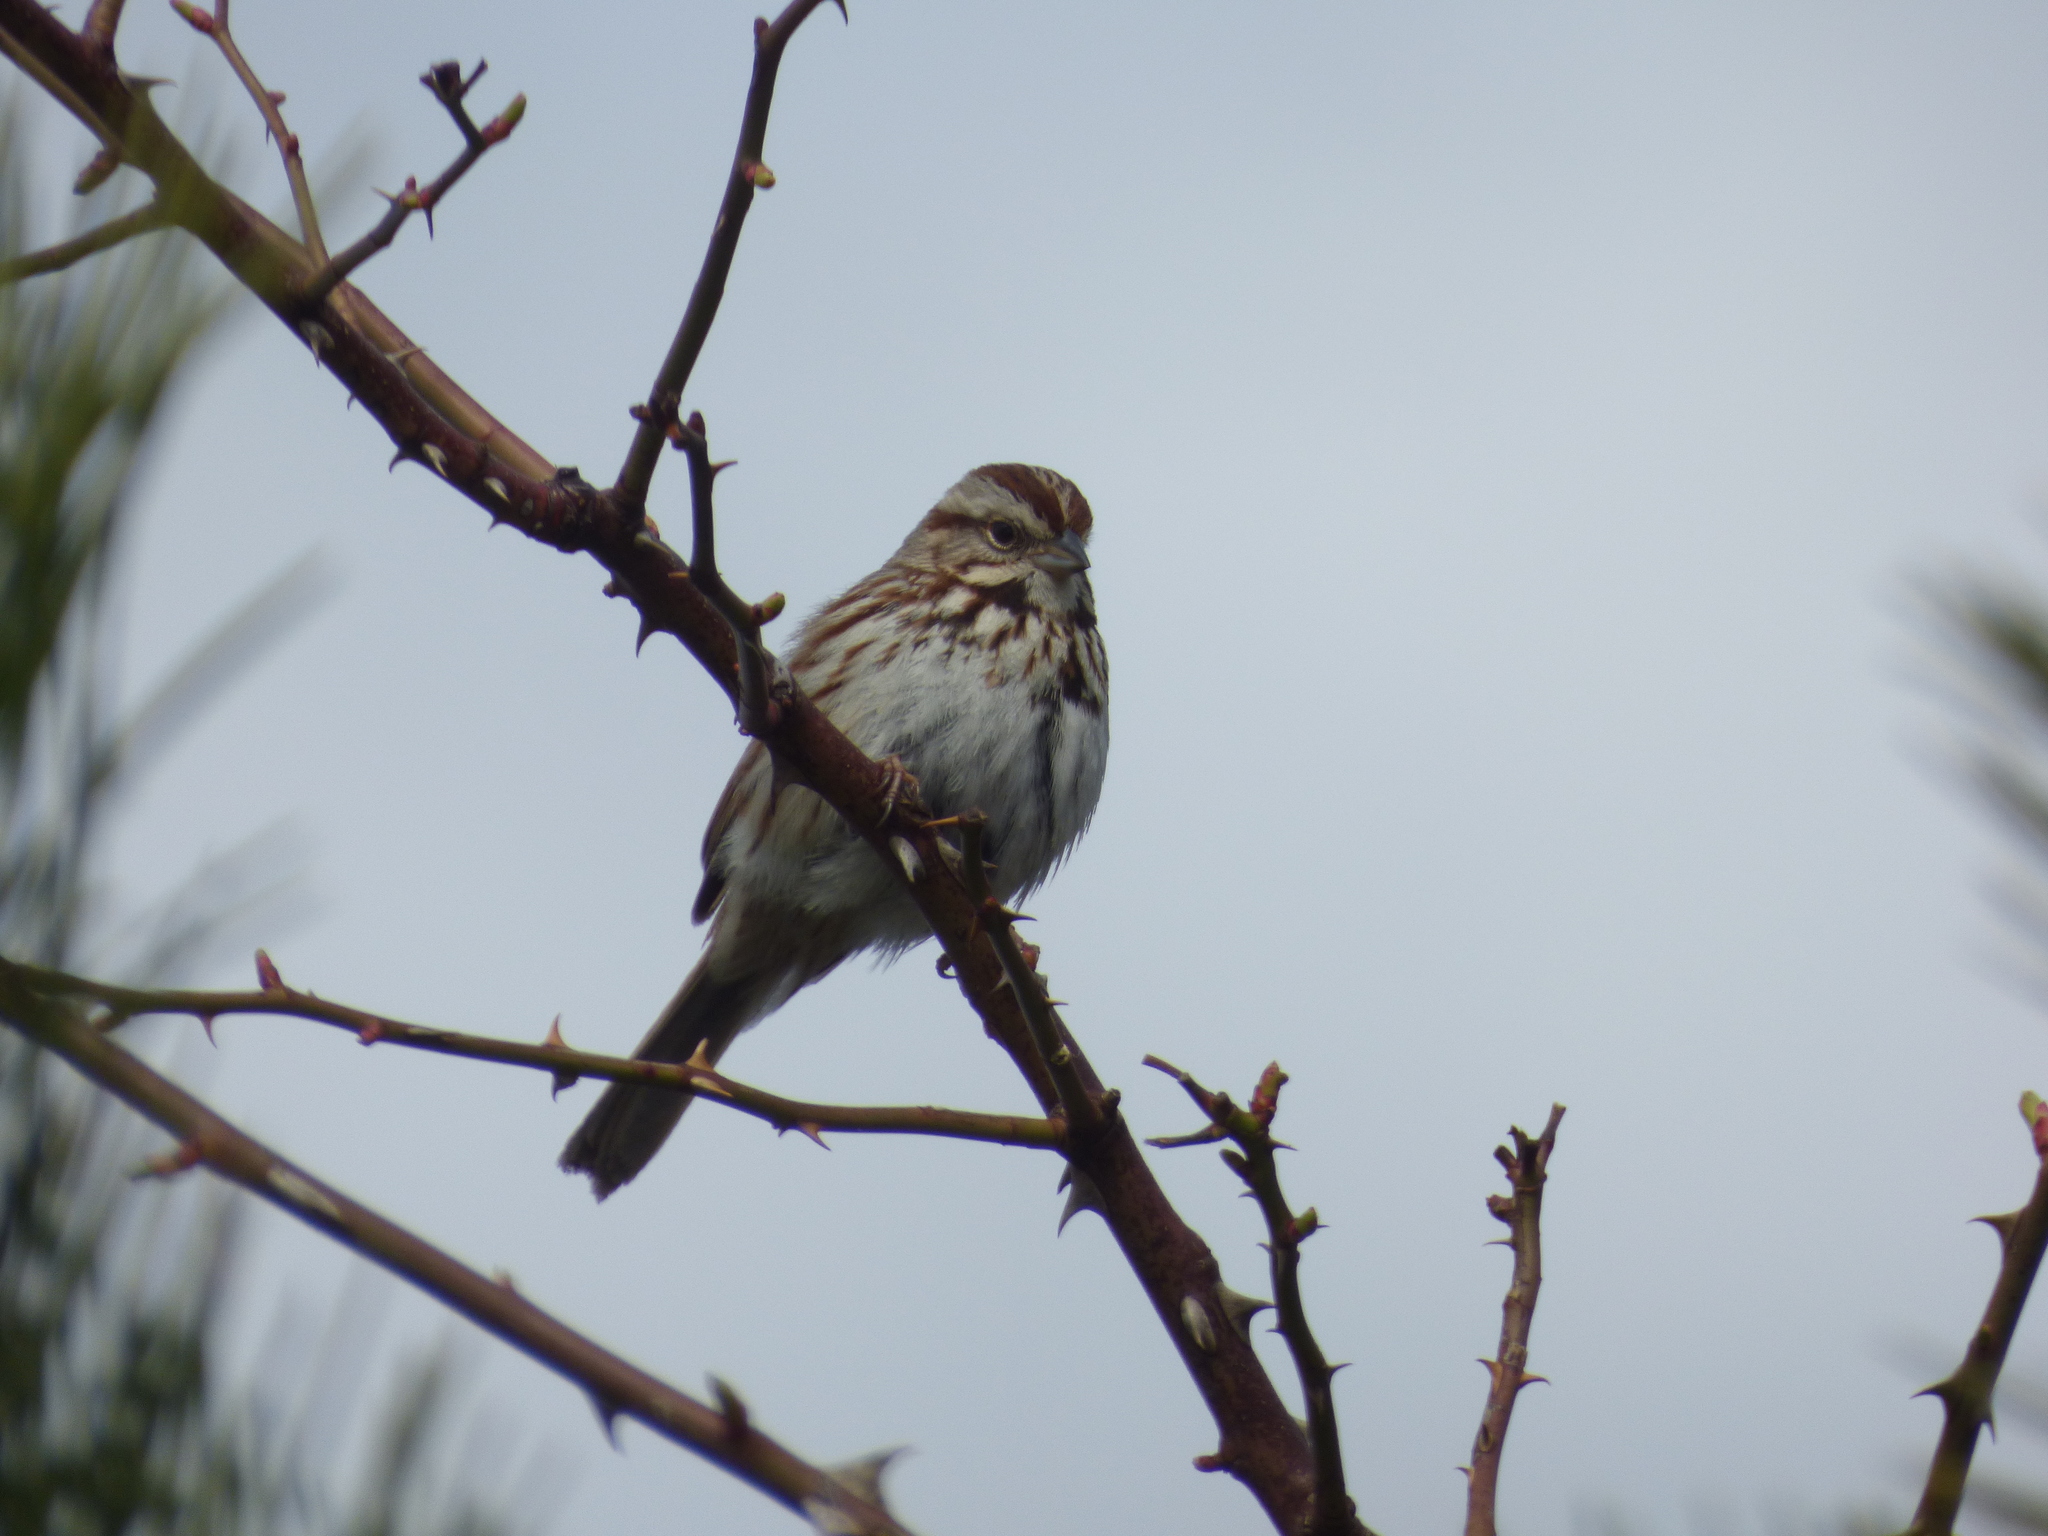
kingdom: Animalia
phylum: Chordata
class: Aves
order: Passeriformes
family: Passerellidae
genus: Melospiza
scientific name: Melospiza melodia
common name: Song sparrow
